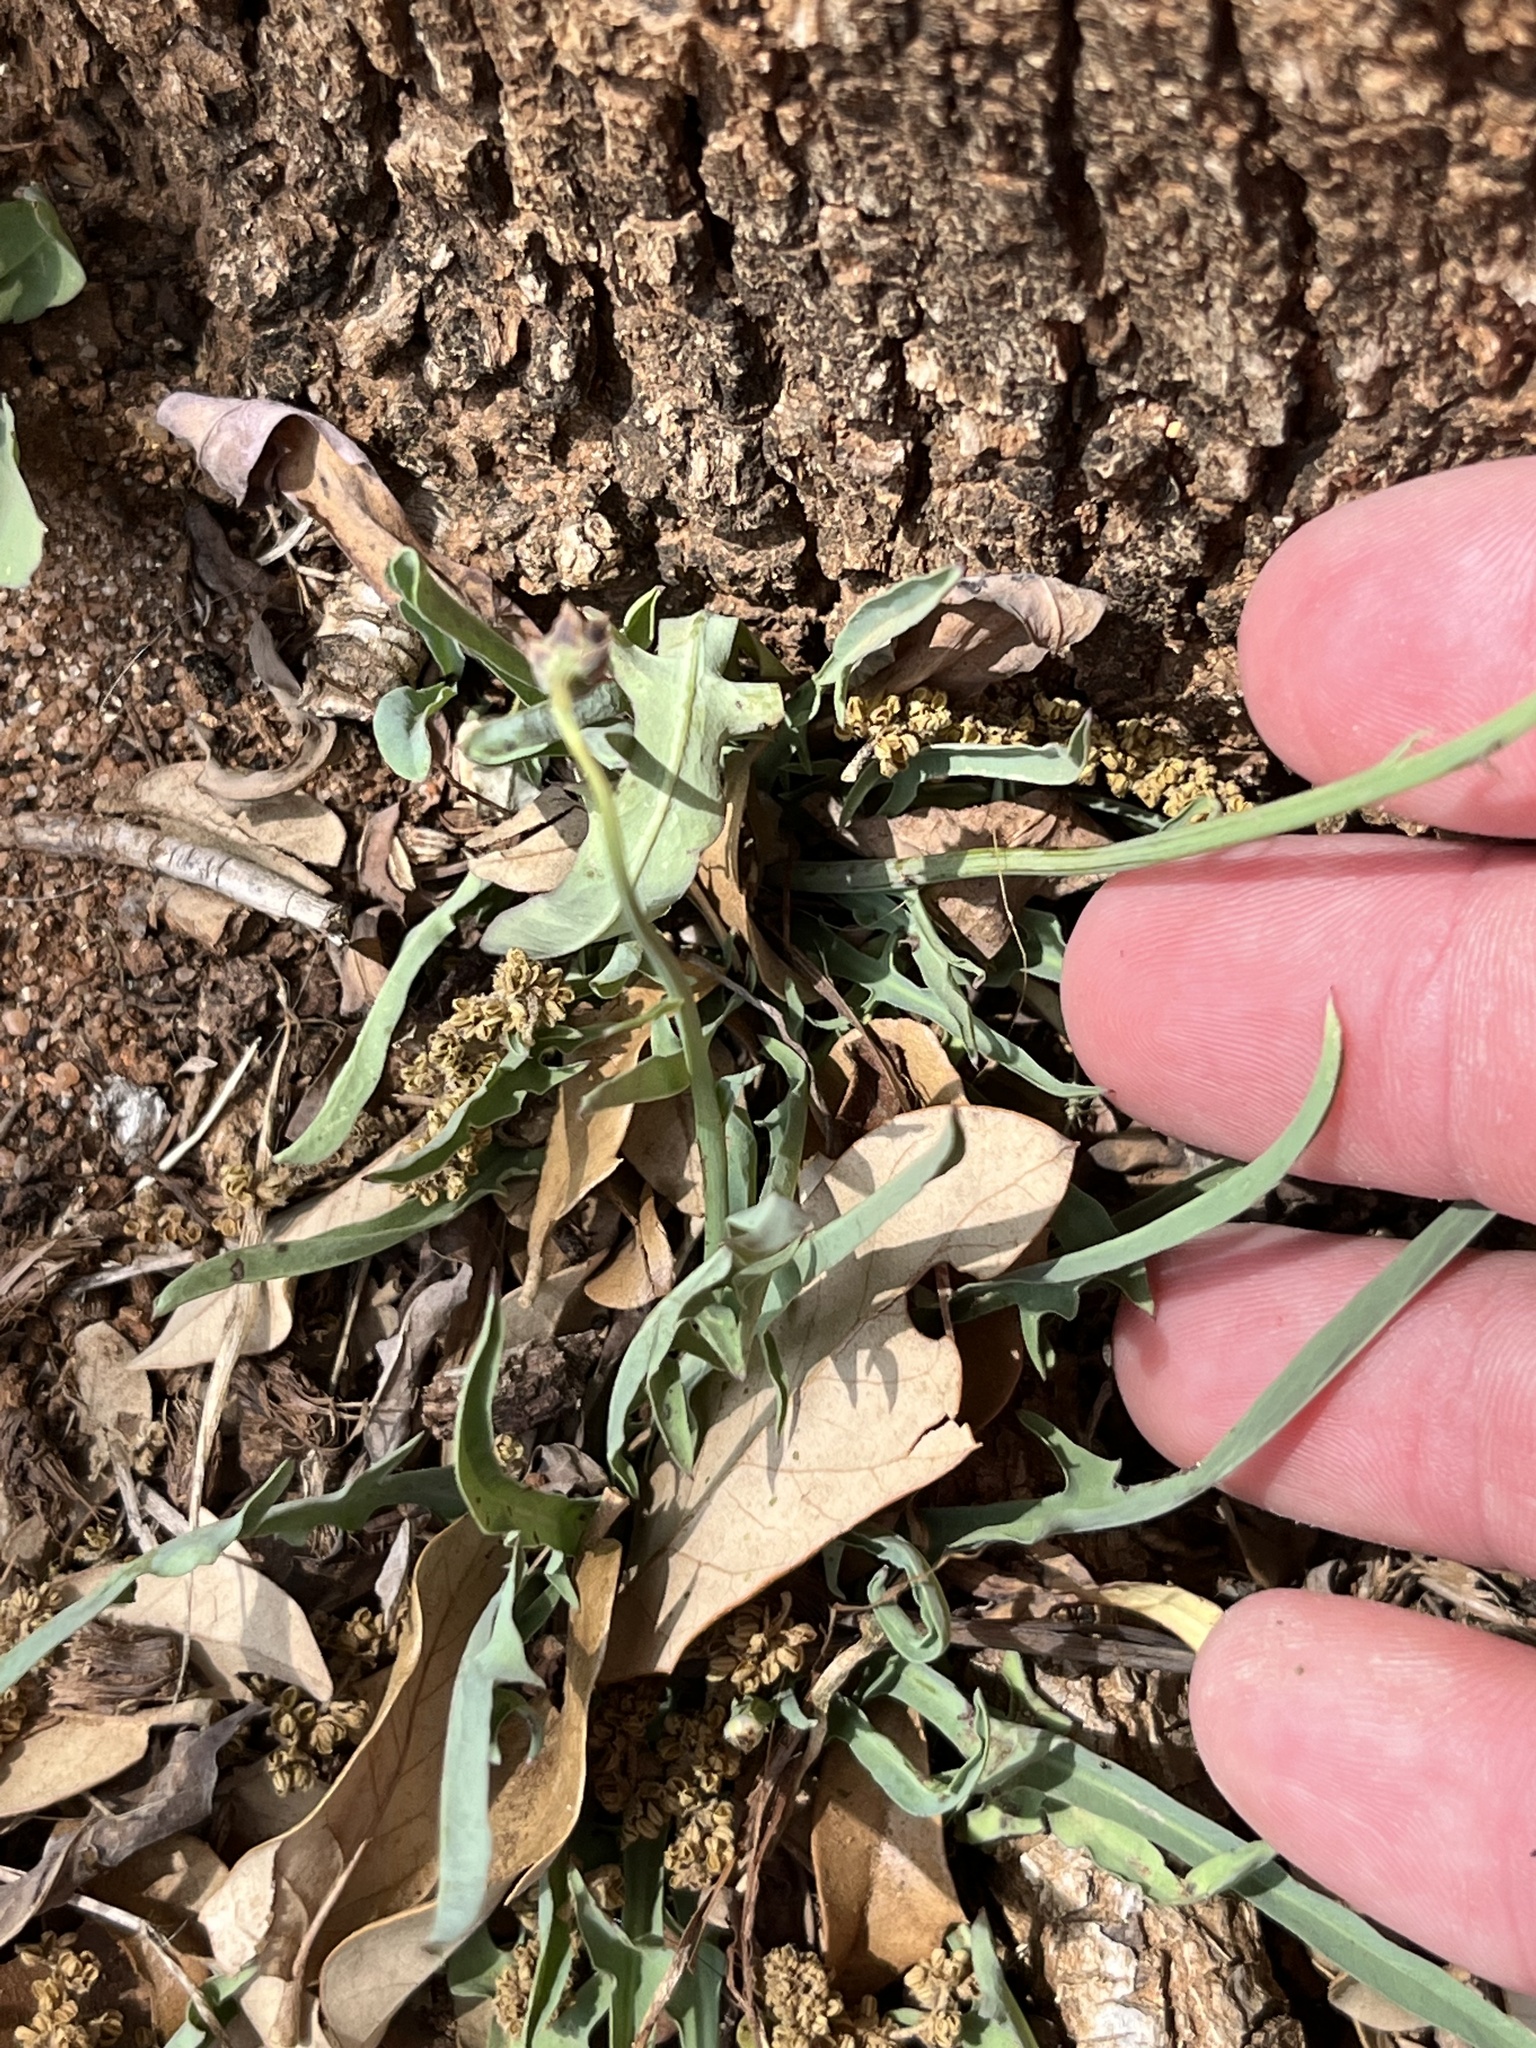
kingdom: Plantae
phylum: Tracheophyta
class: Magnoliopsida
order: Asterales
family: Asteraceae
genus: Pinaropappus
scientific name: Pinaropappus roseus
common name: Rock-lettuce
